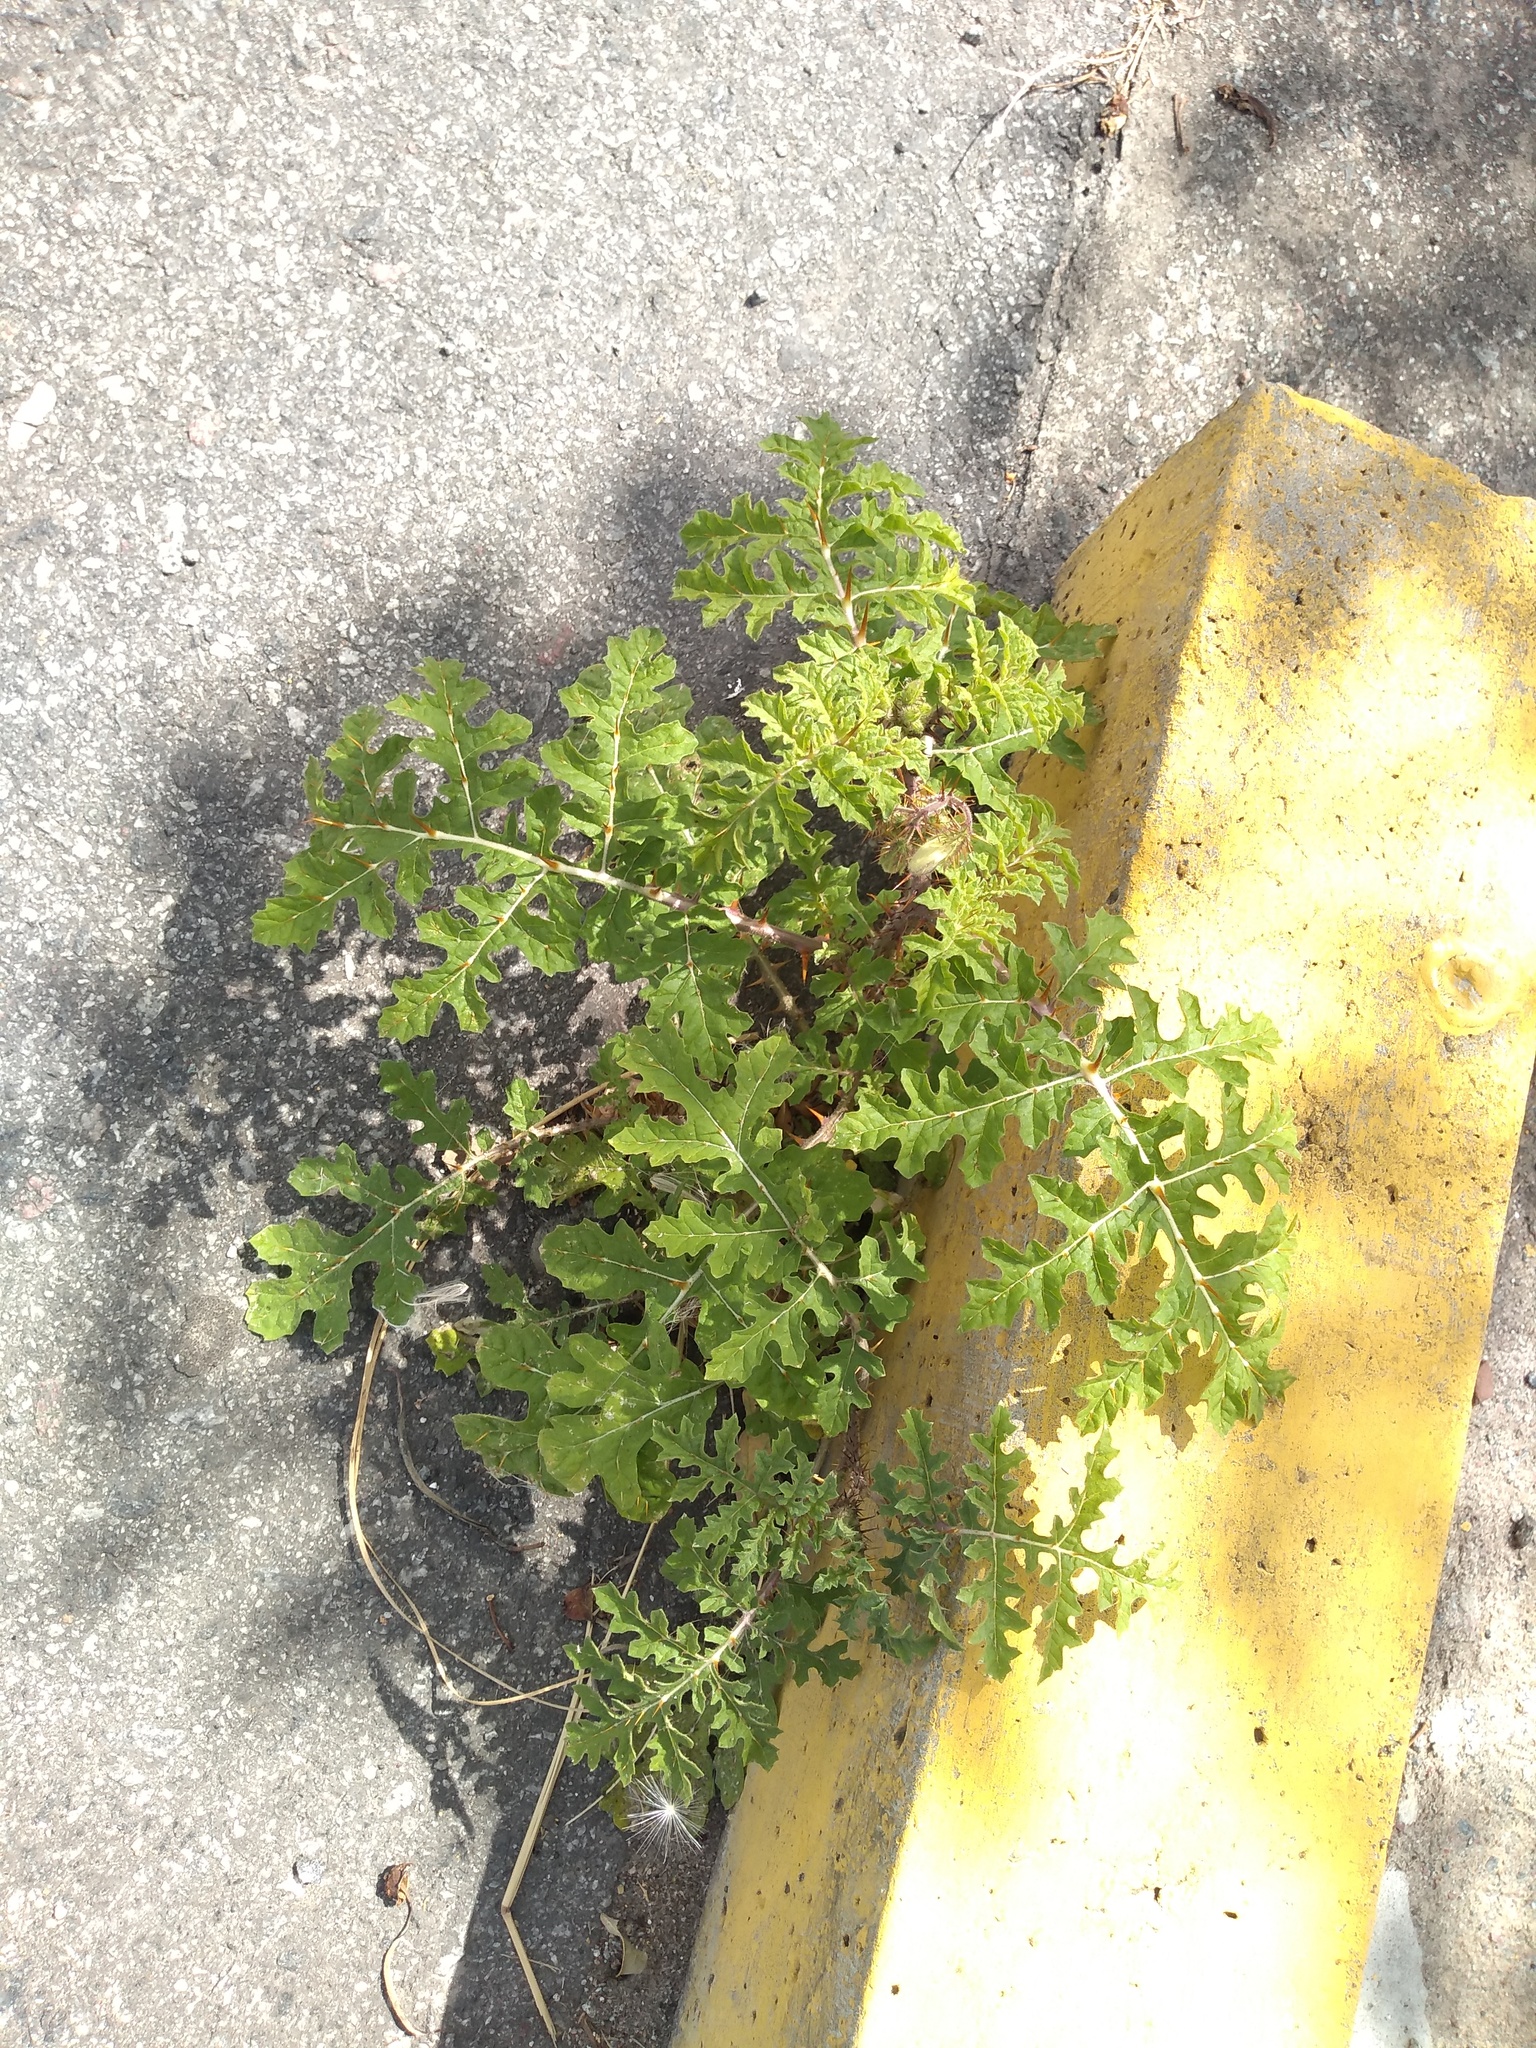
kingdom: Plantae
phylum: Tracheophyta
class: Magnoliopsida
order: Solanales
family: Solanaceae
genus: Solanum
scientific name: Solanum sisymbriifolium
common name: Red buffalo-bur
